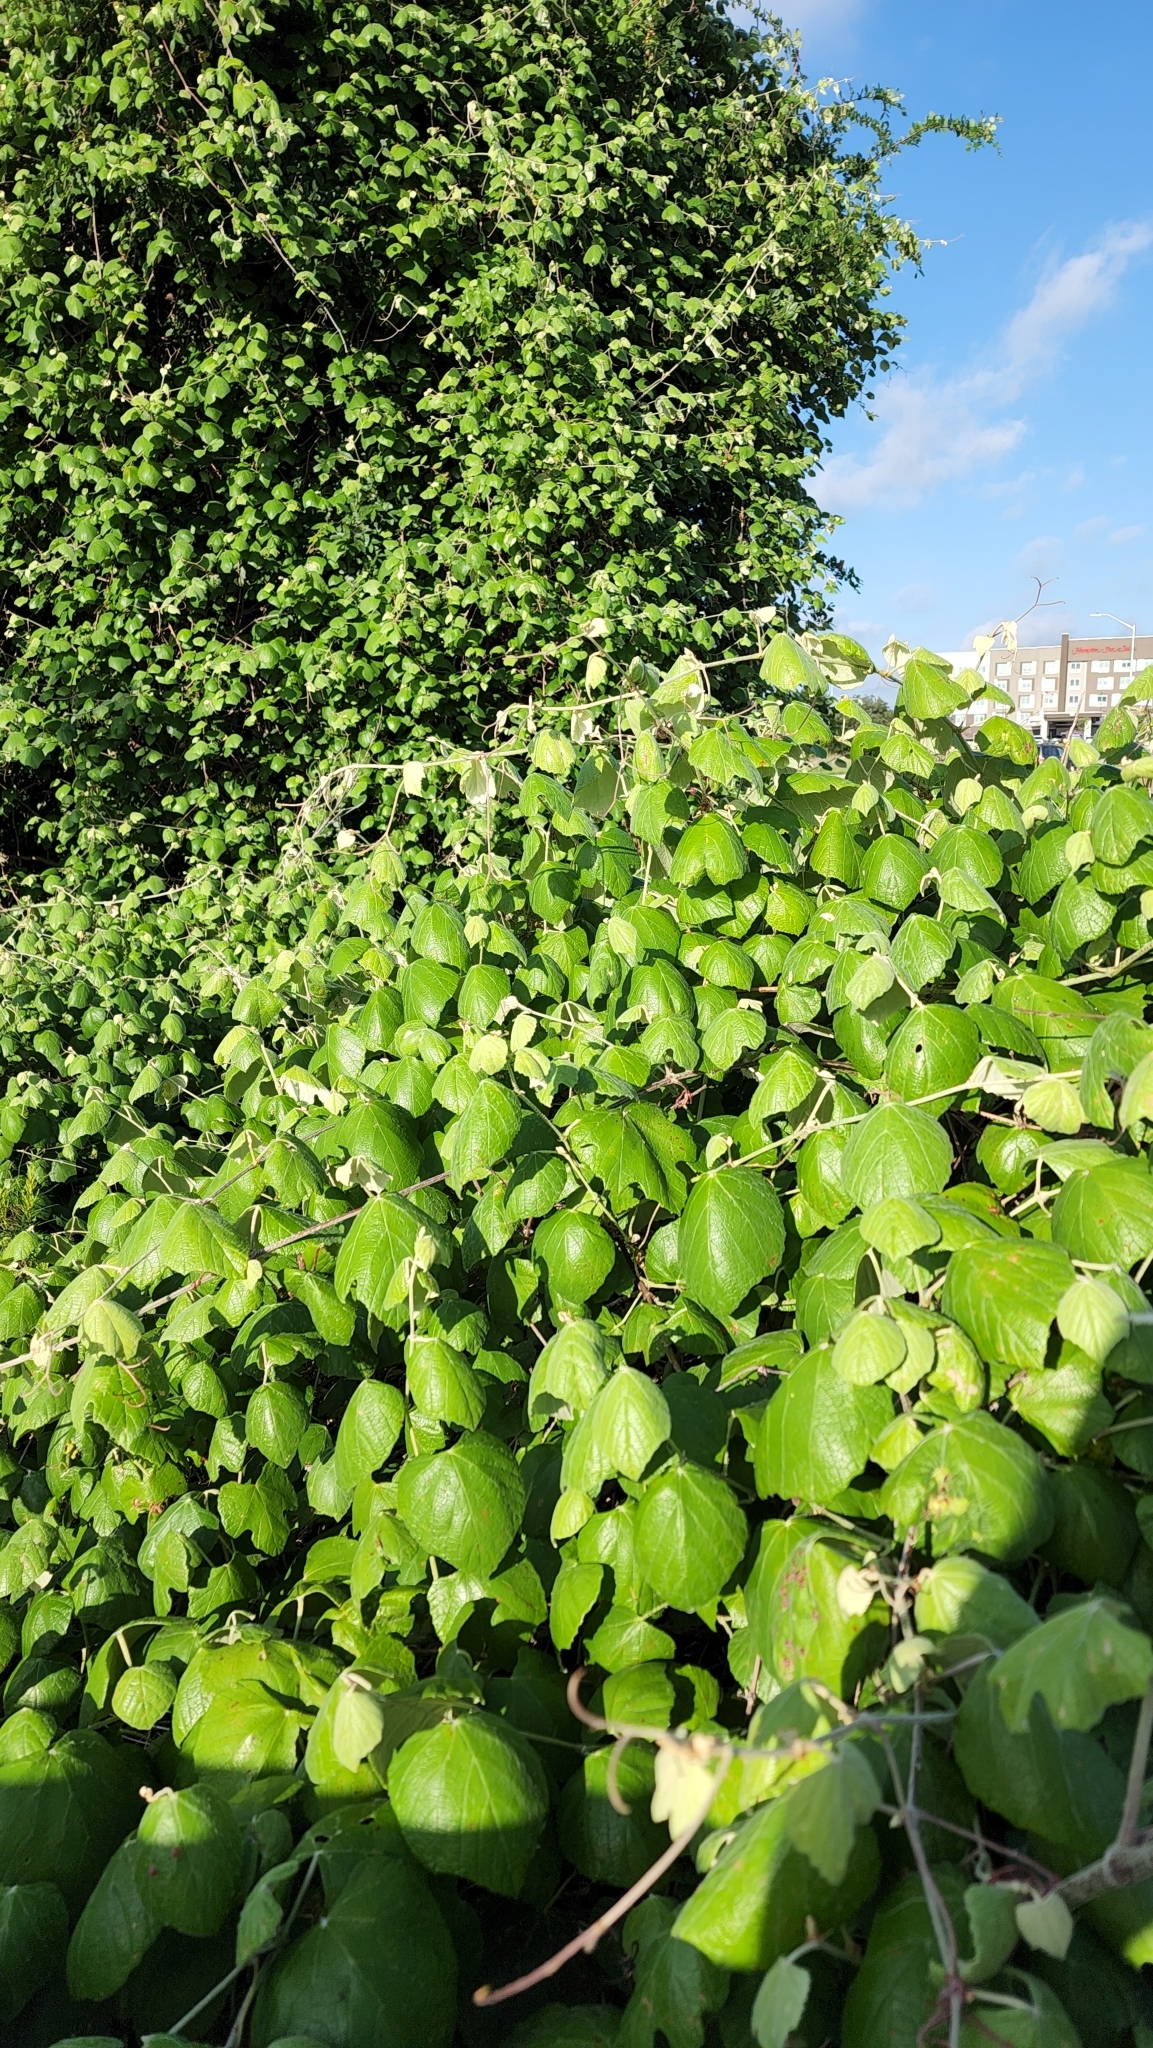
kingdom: Plantae
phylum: Tracheophyta
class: Magnoliopsida
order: Vitales
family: Vitaceae
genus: Vitis
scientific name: Vitis mustangensis
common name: Mustang grape
